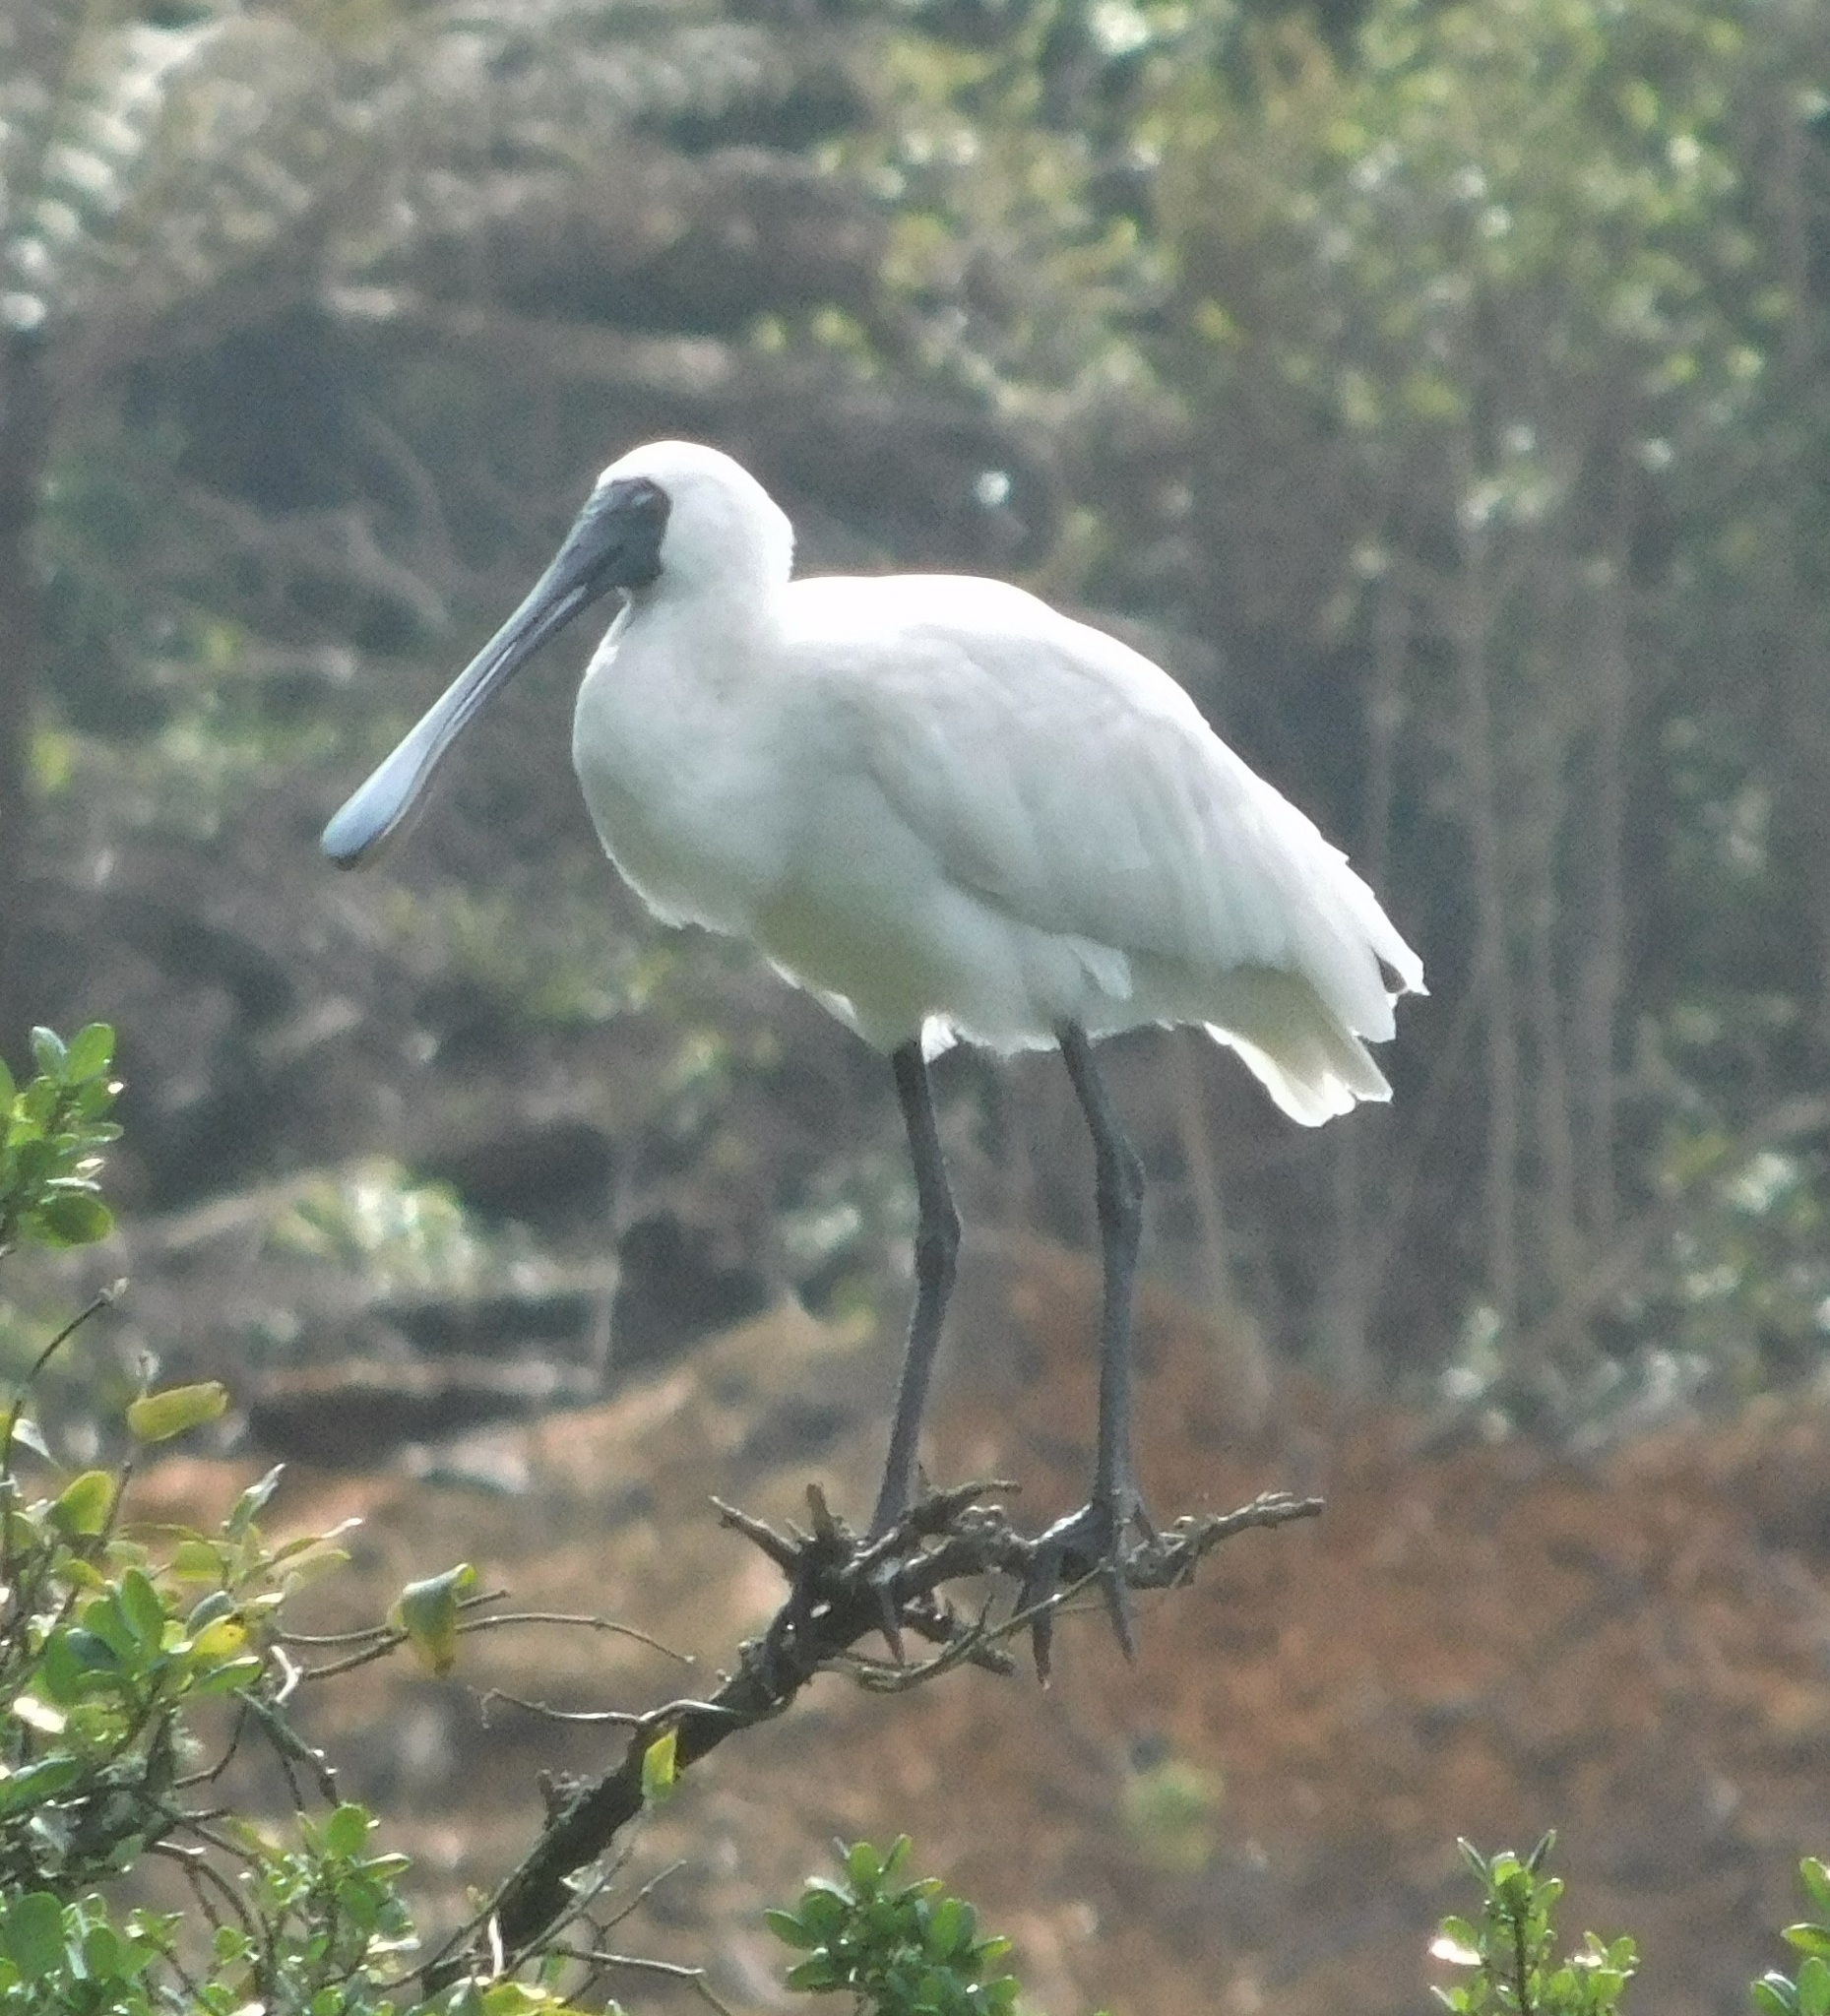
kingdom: Animalia
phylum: Chordata
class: Aves
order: Pelecaniformes
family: Threskiornithidae
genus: Platalea
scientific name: Platalea regia
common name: Royal spoonbill
